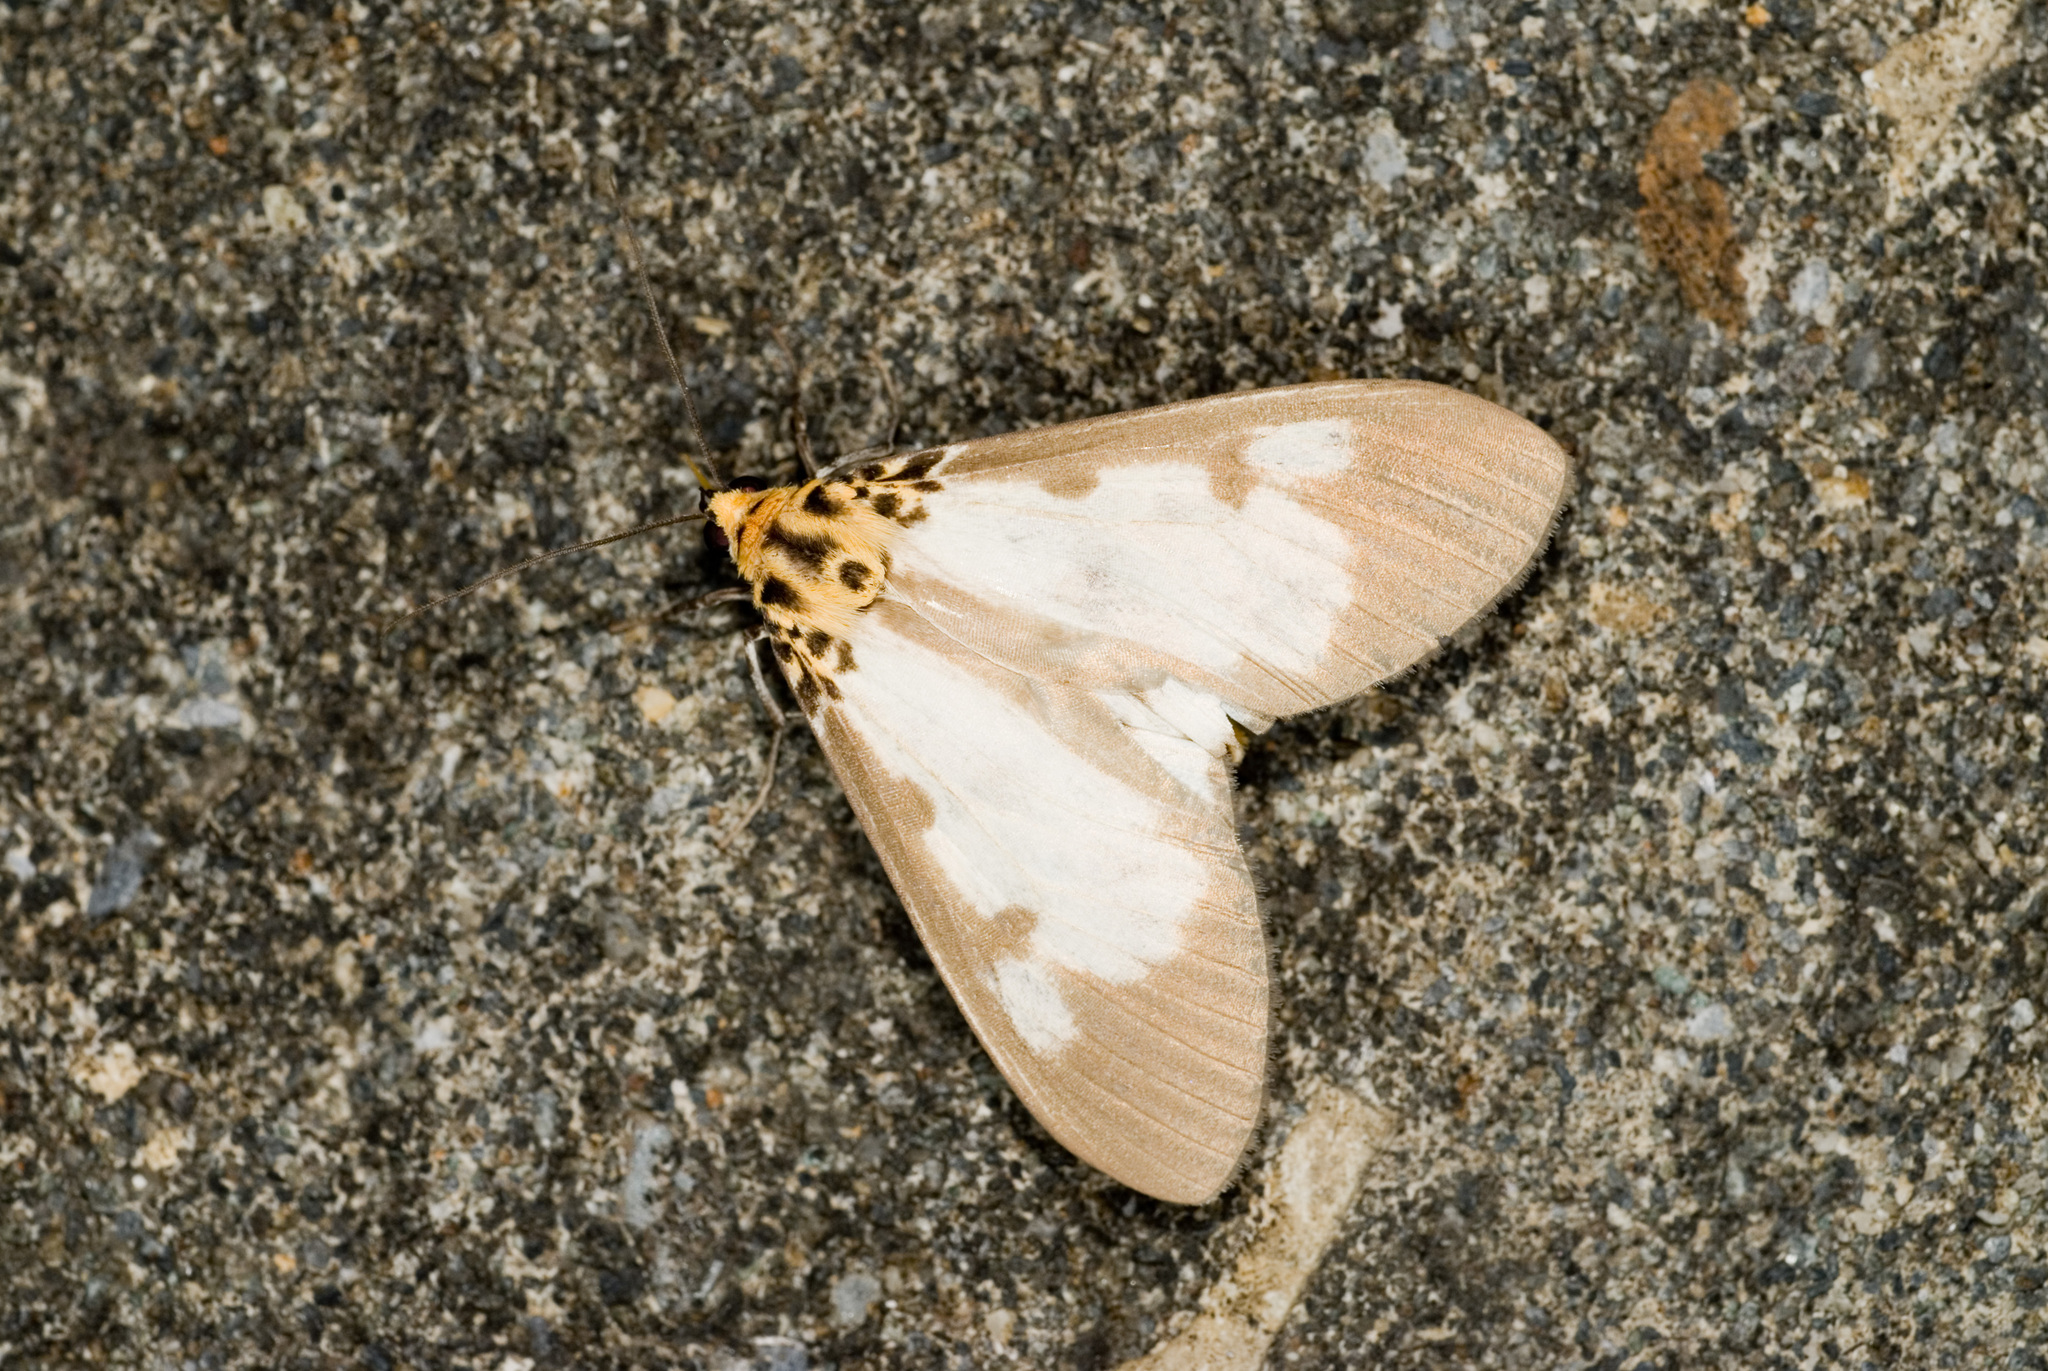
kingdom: Animalia
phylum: Arthropoda
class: Insecta
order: Lepidoptera
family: Erebidae
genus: Asota
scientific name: Asota plana
